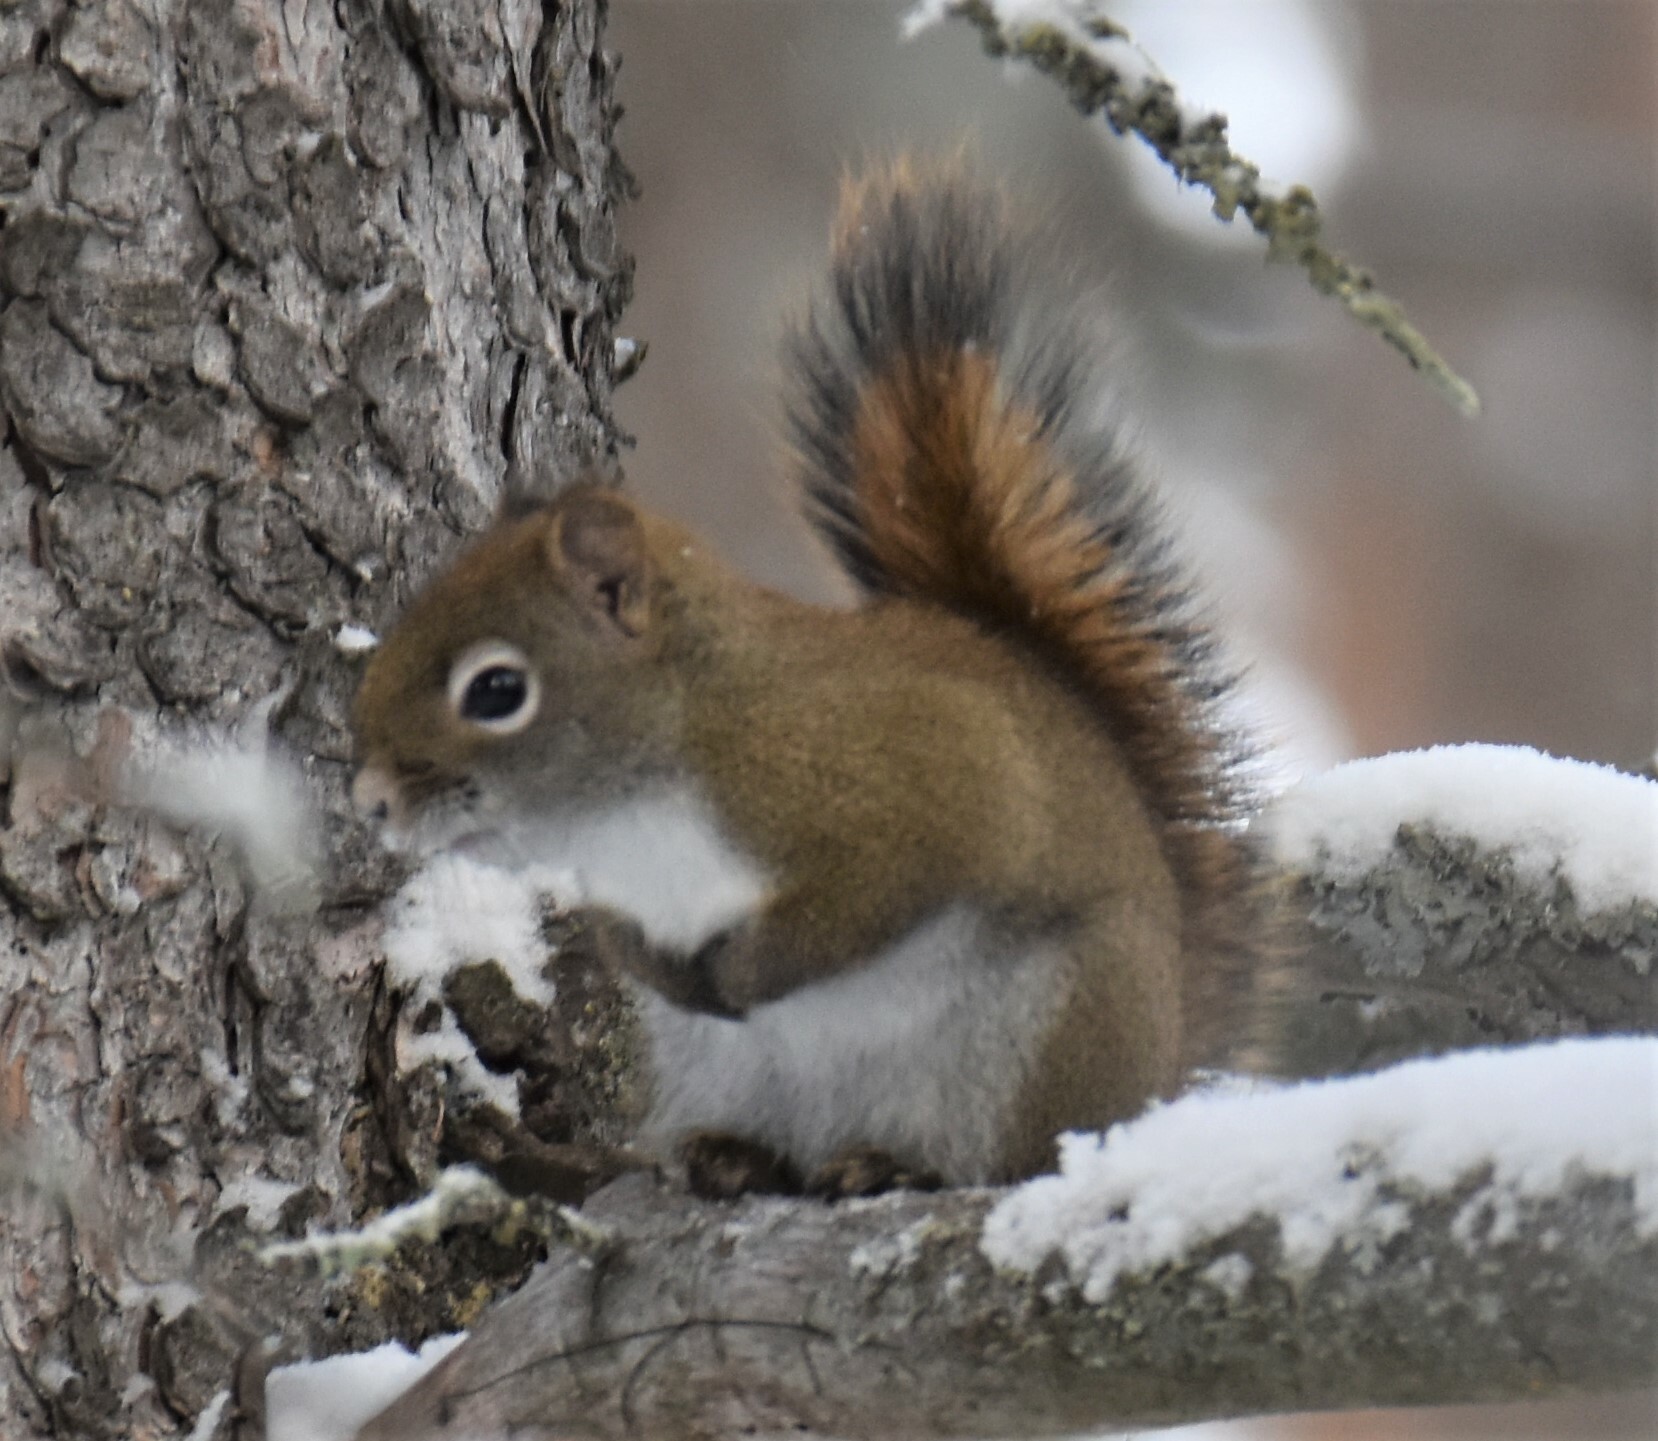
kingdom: Animalia
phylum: Chordata
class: Mammalia
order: Rodentia
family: Sciuridae
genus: Tamiasciurus
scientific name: Tamiasciurus hudsonicus
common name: Red squirrel
